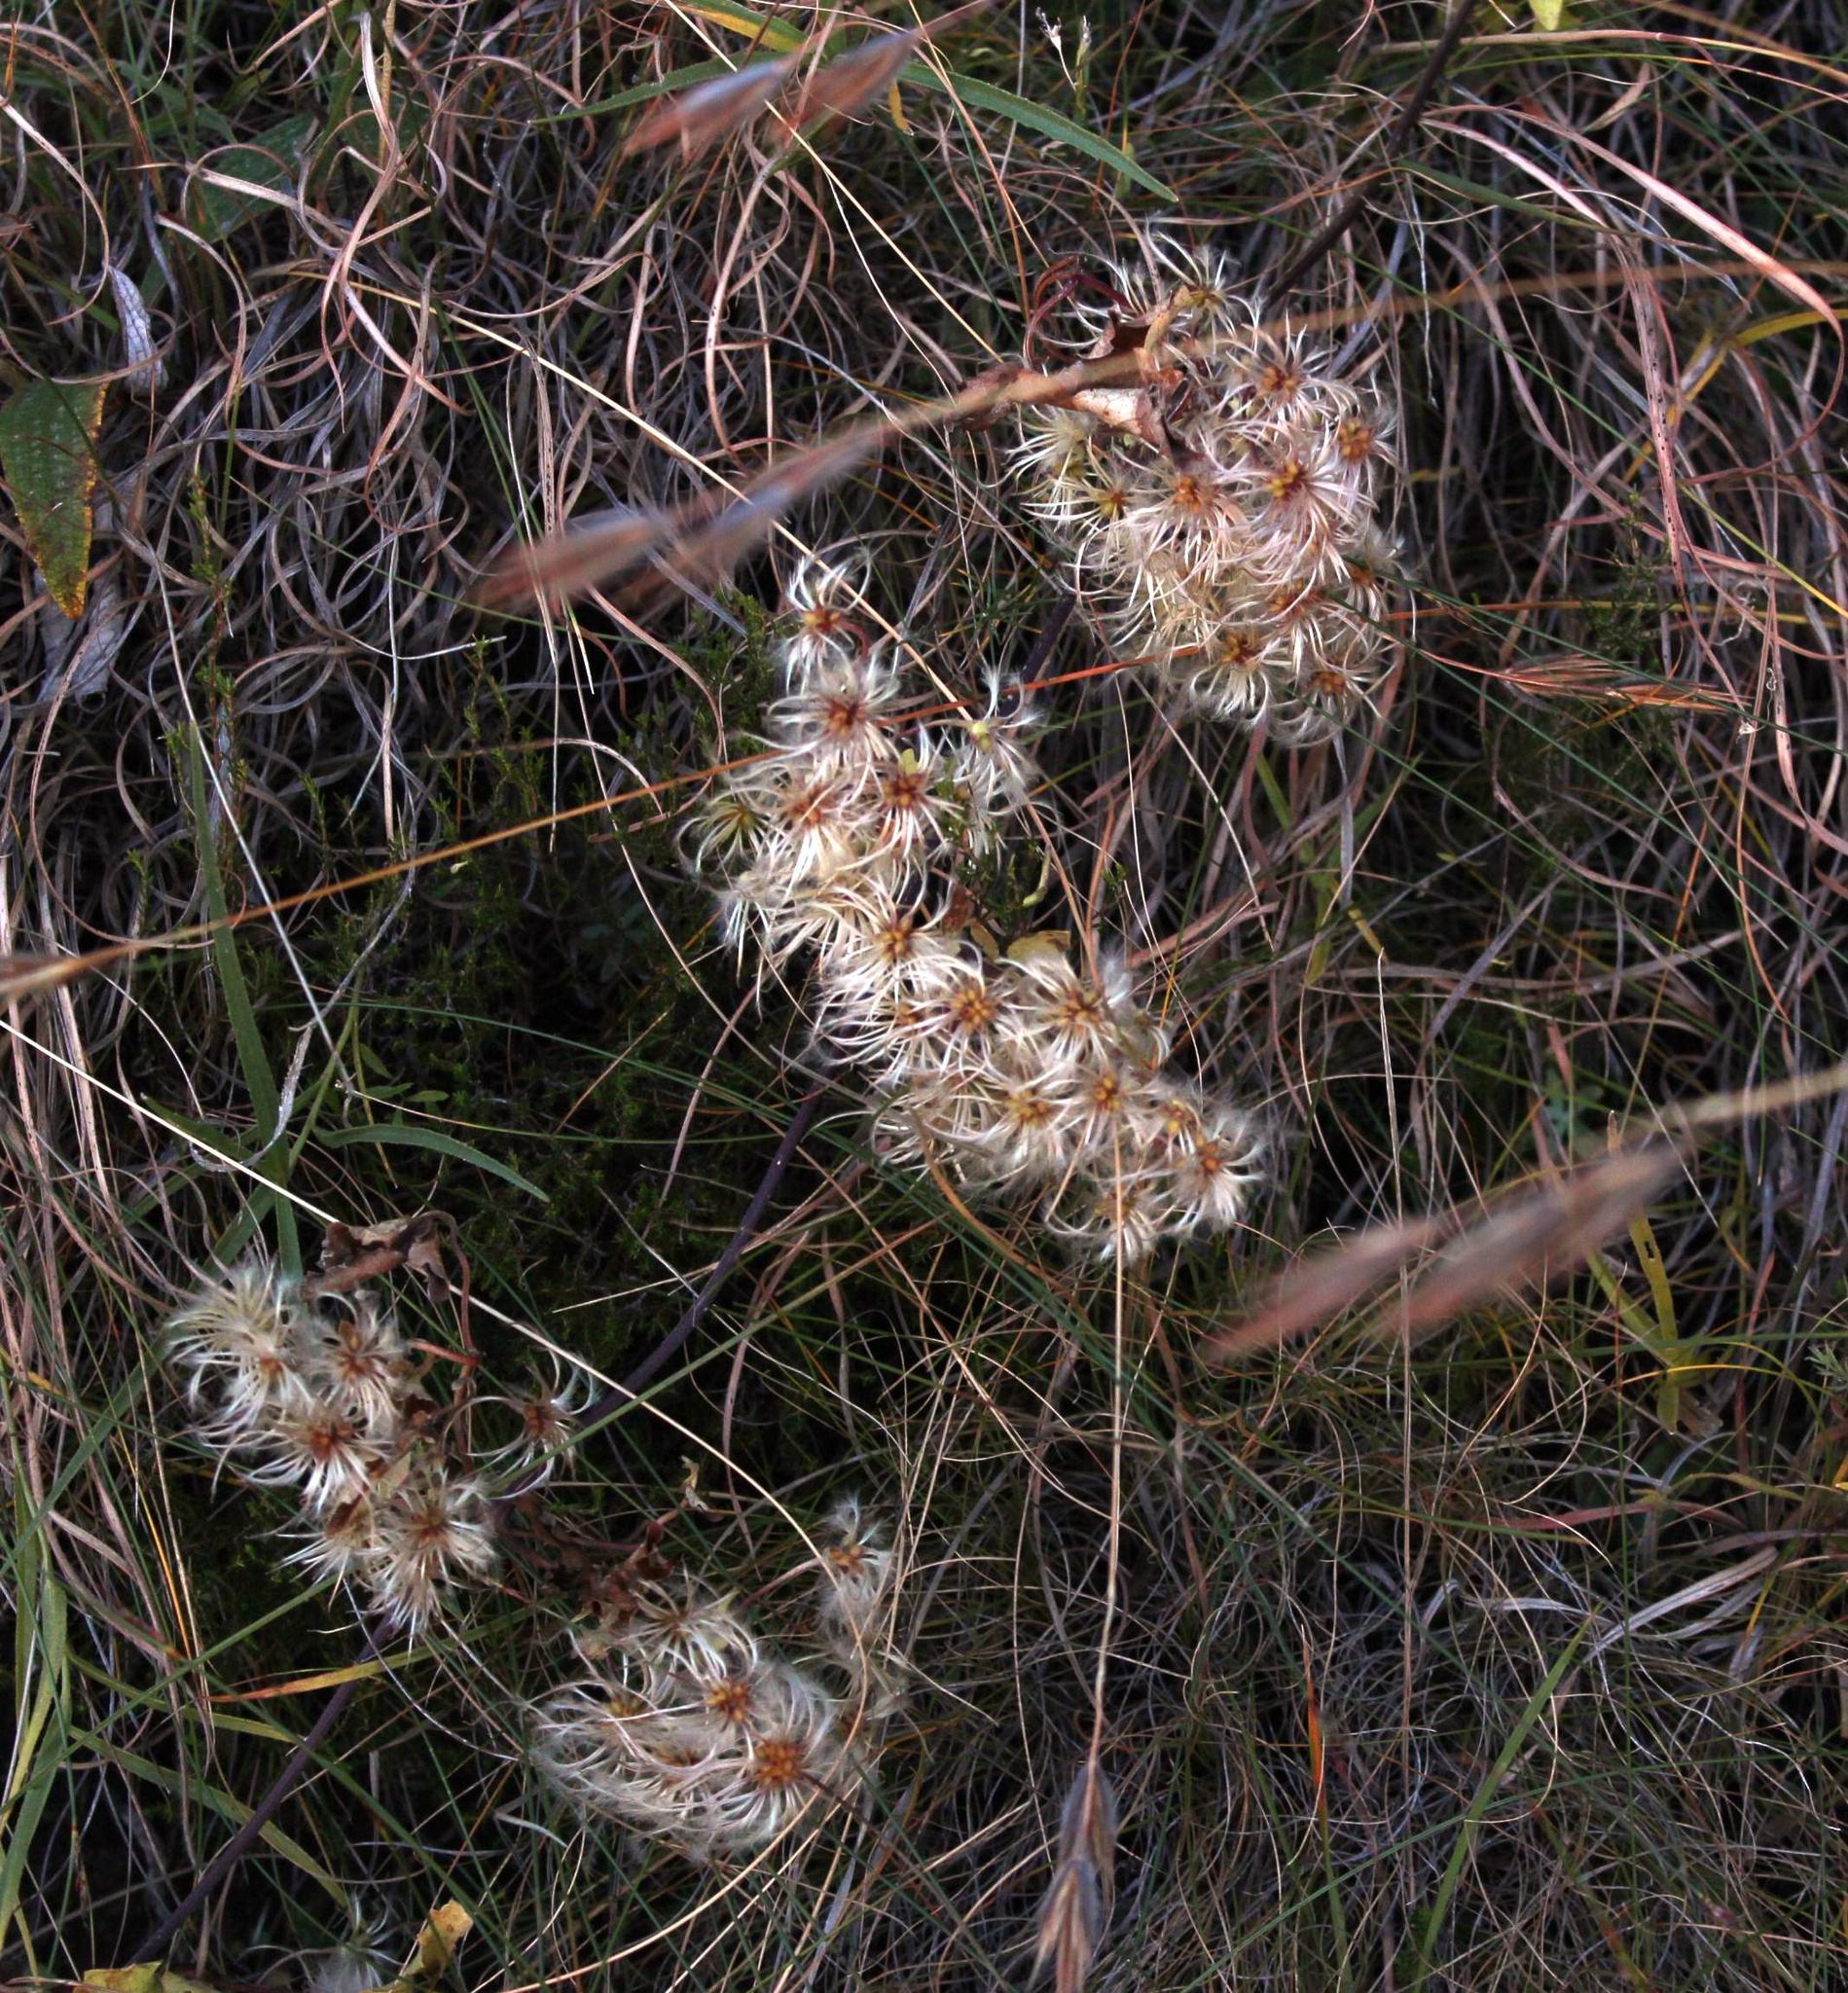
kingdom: Plantae
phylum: Tracheophyta
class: Magnoliopsida
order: Ranunculales
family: Ranunculaceae
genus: Clematis
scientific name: Clematis brachiata
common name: Traveler's-joy
